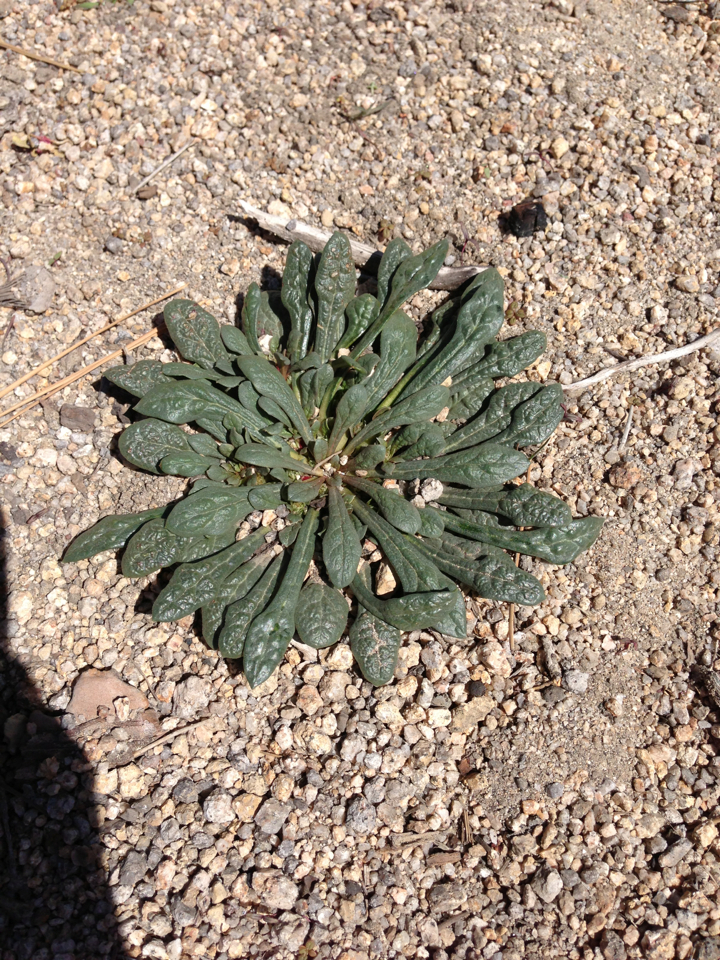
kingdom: Plantae
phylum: Tracheophyta
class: Magnoliopsida
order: Caryophyllales
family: Montiaceae
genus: Calyptridium
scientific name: Calyptridium
